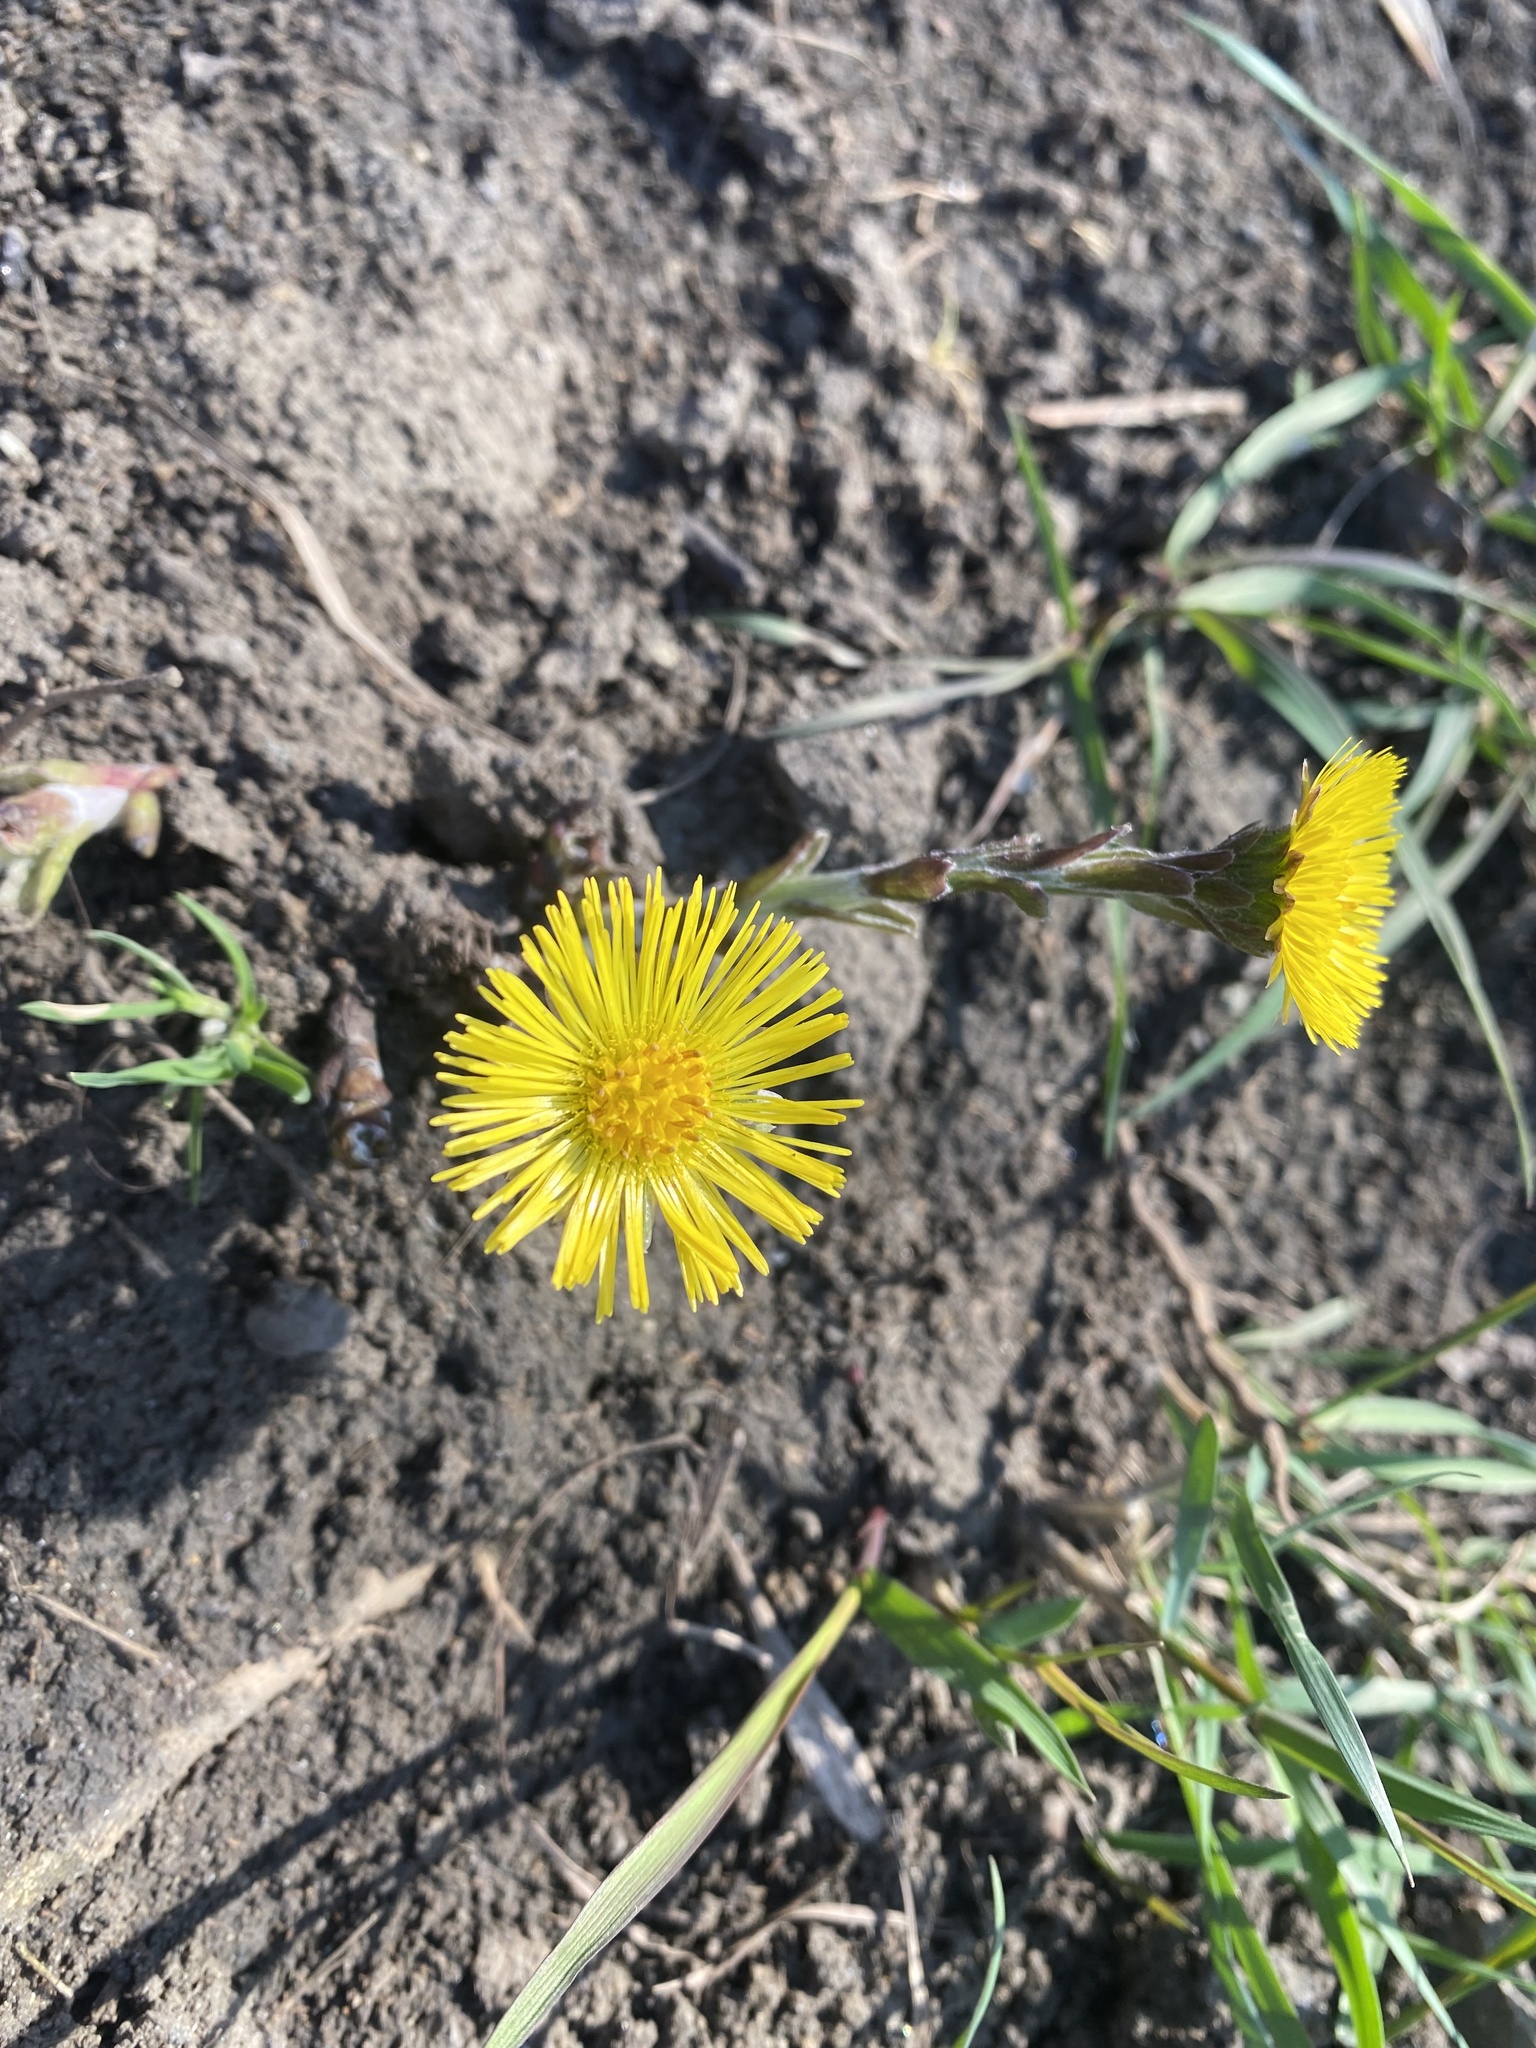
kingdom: Plantae
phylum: Tracheophyta
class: Magnoliopsida
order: Asterales
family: Asteraceae
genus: Tussilago
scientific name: Tussilago farfara
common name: Coltsfoot
